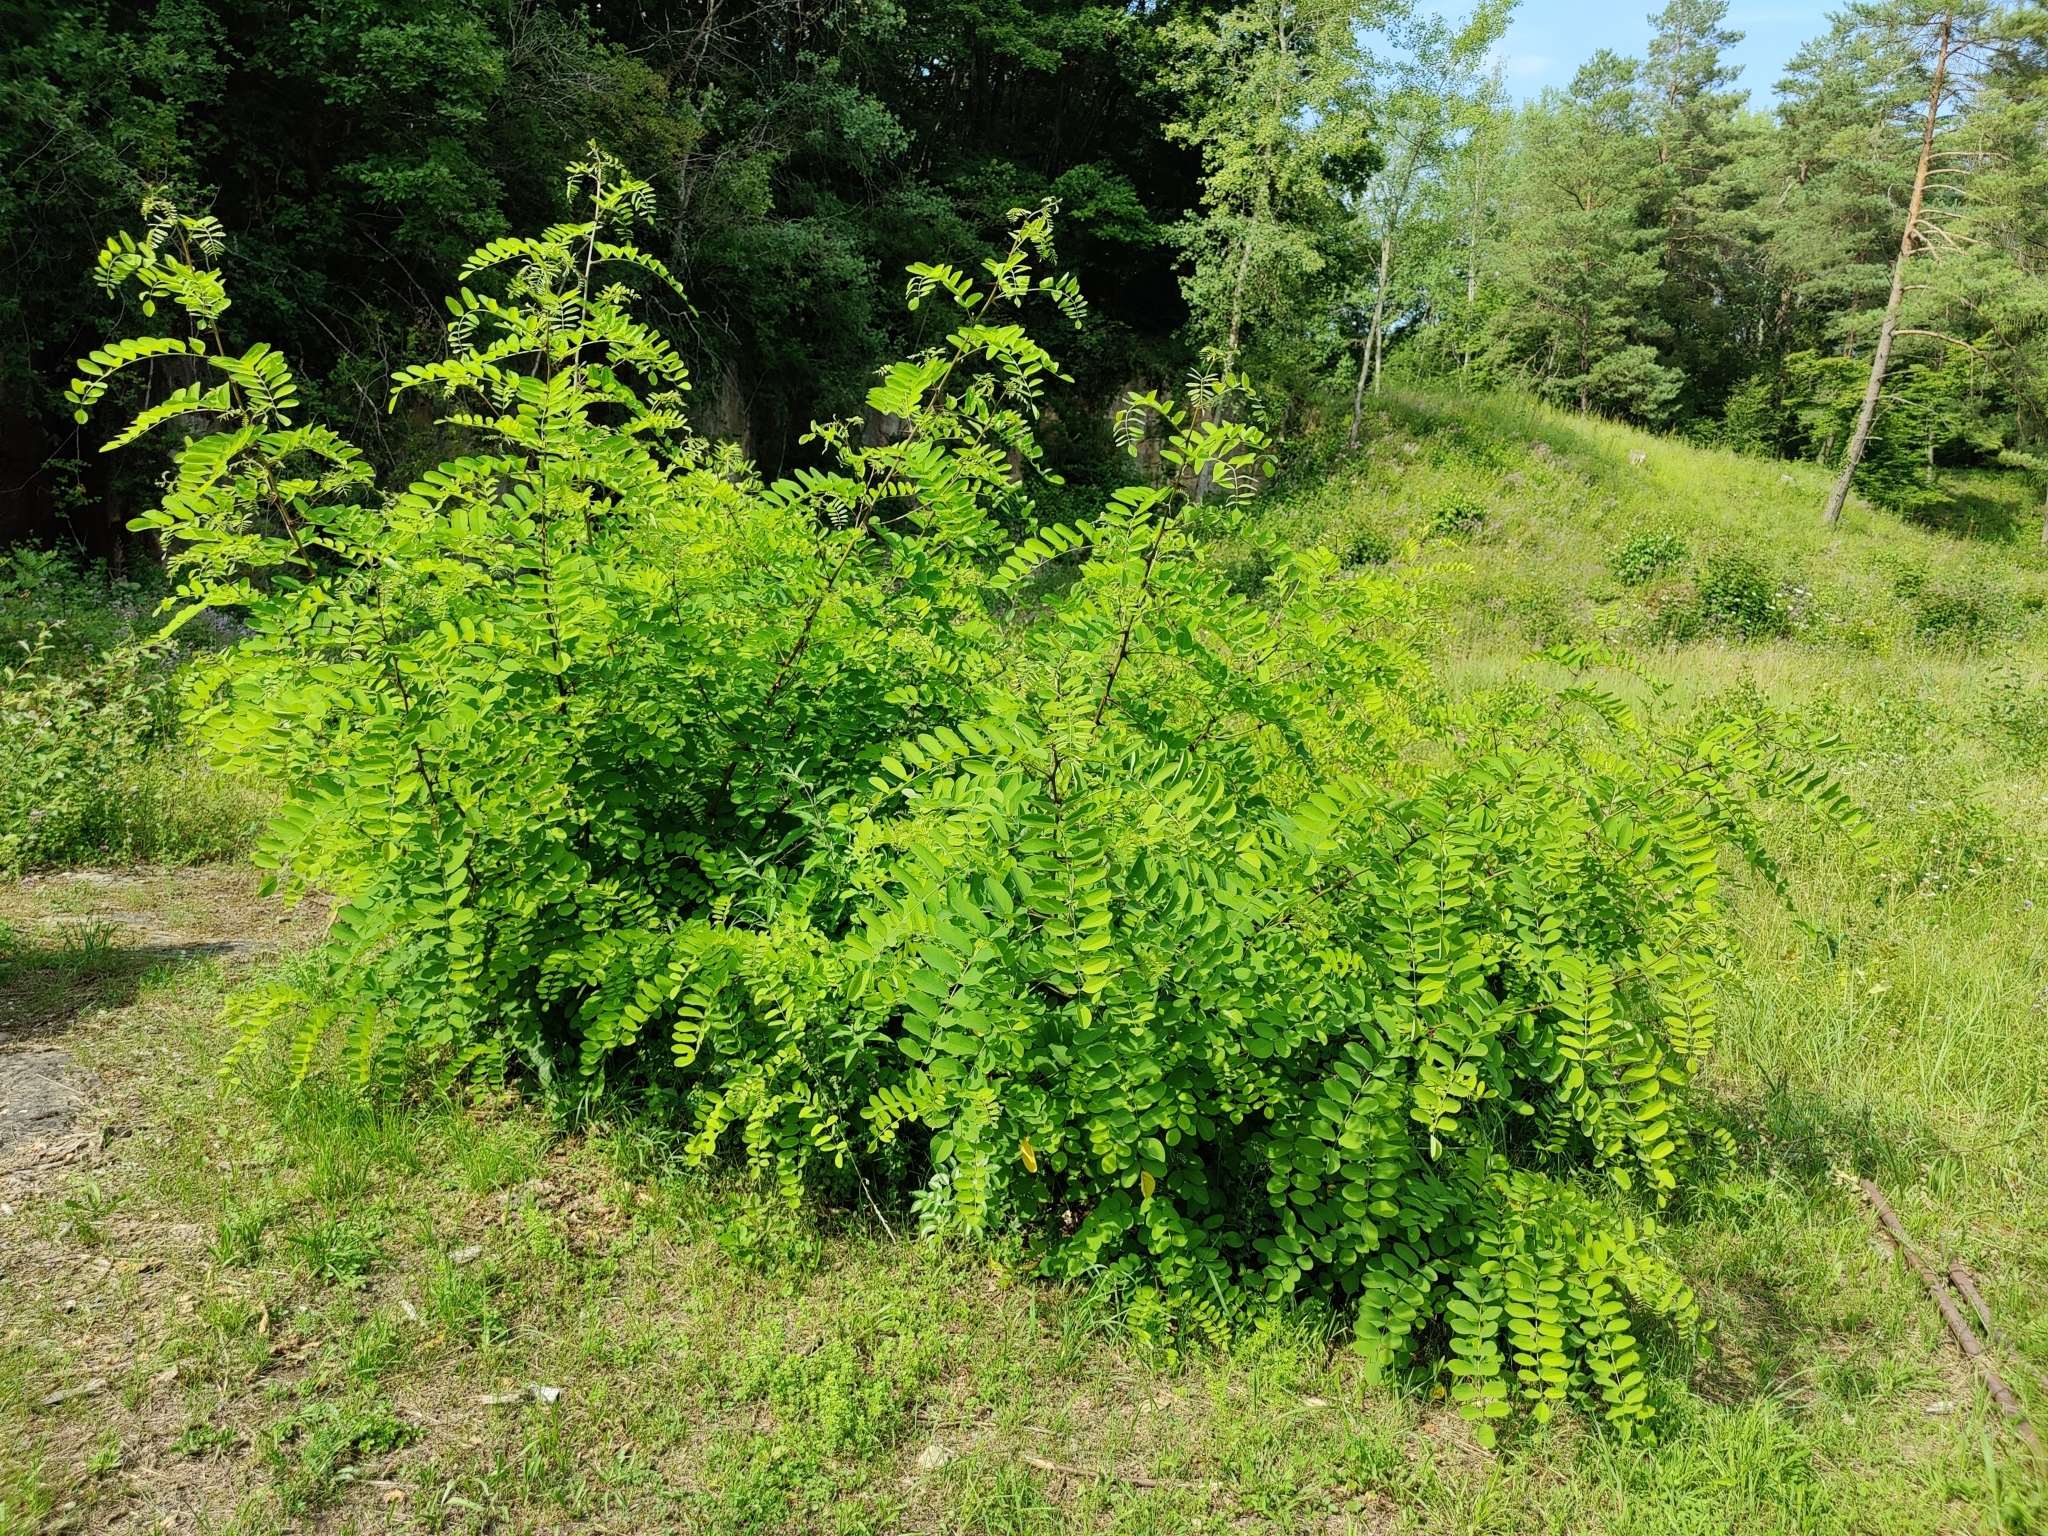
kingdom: Plantae
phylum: Tracheophyta
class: Magnoliopsida
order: Fabales
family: Fabaceae
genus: Robinia
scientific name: Robinia pseudoacacia
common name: Black locust
